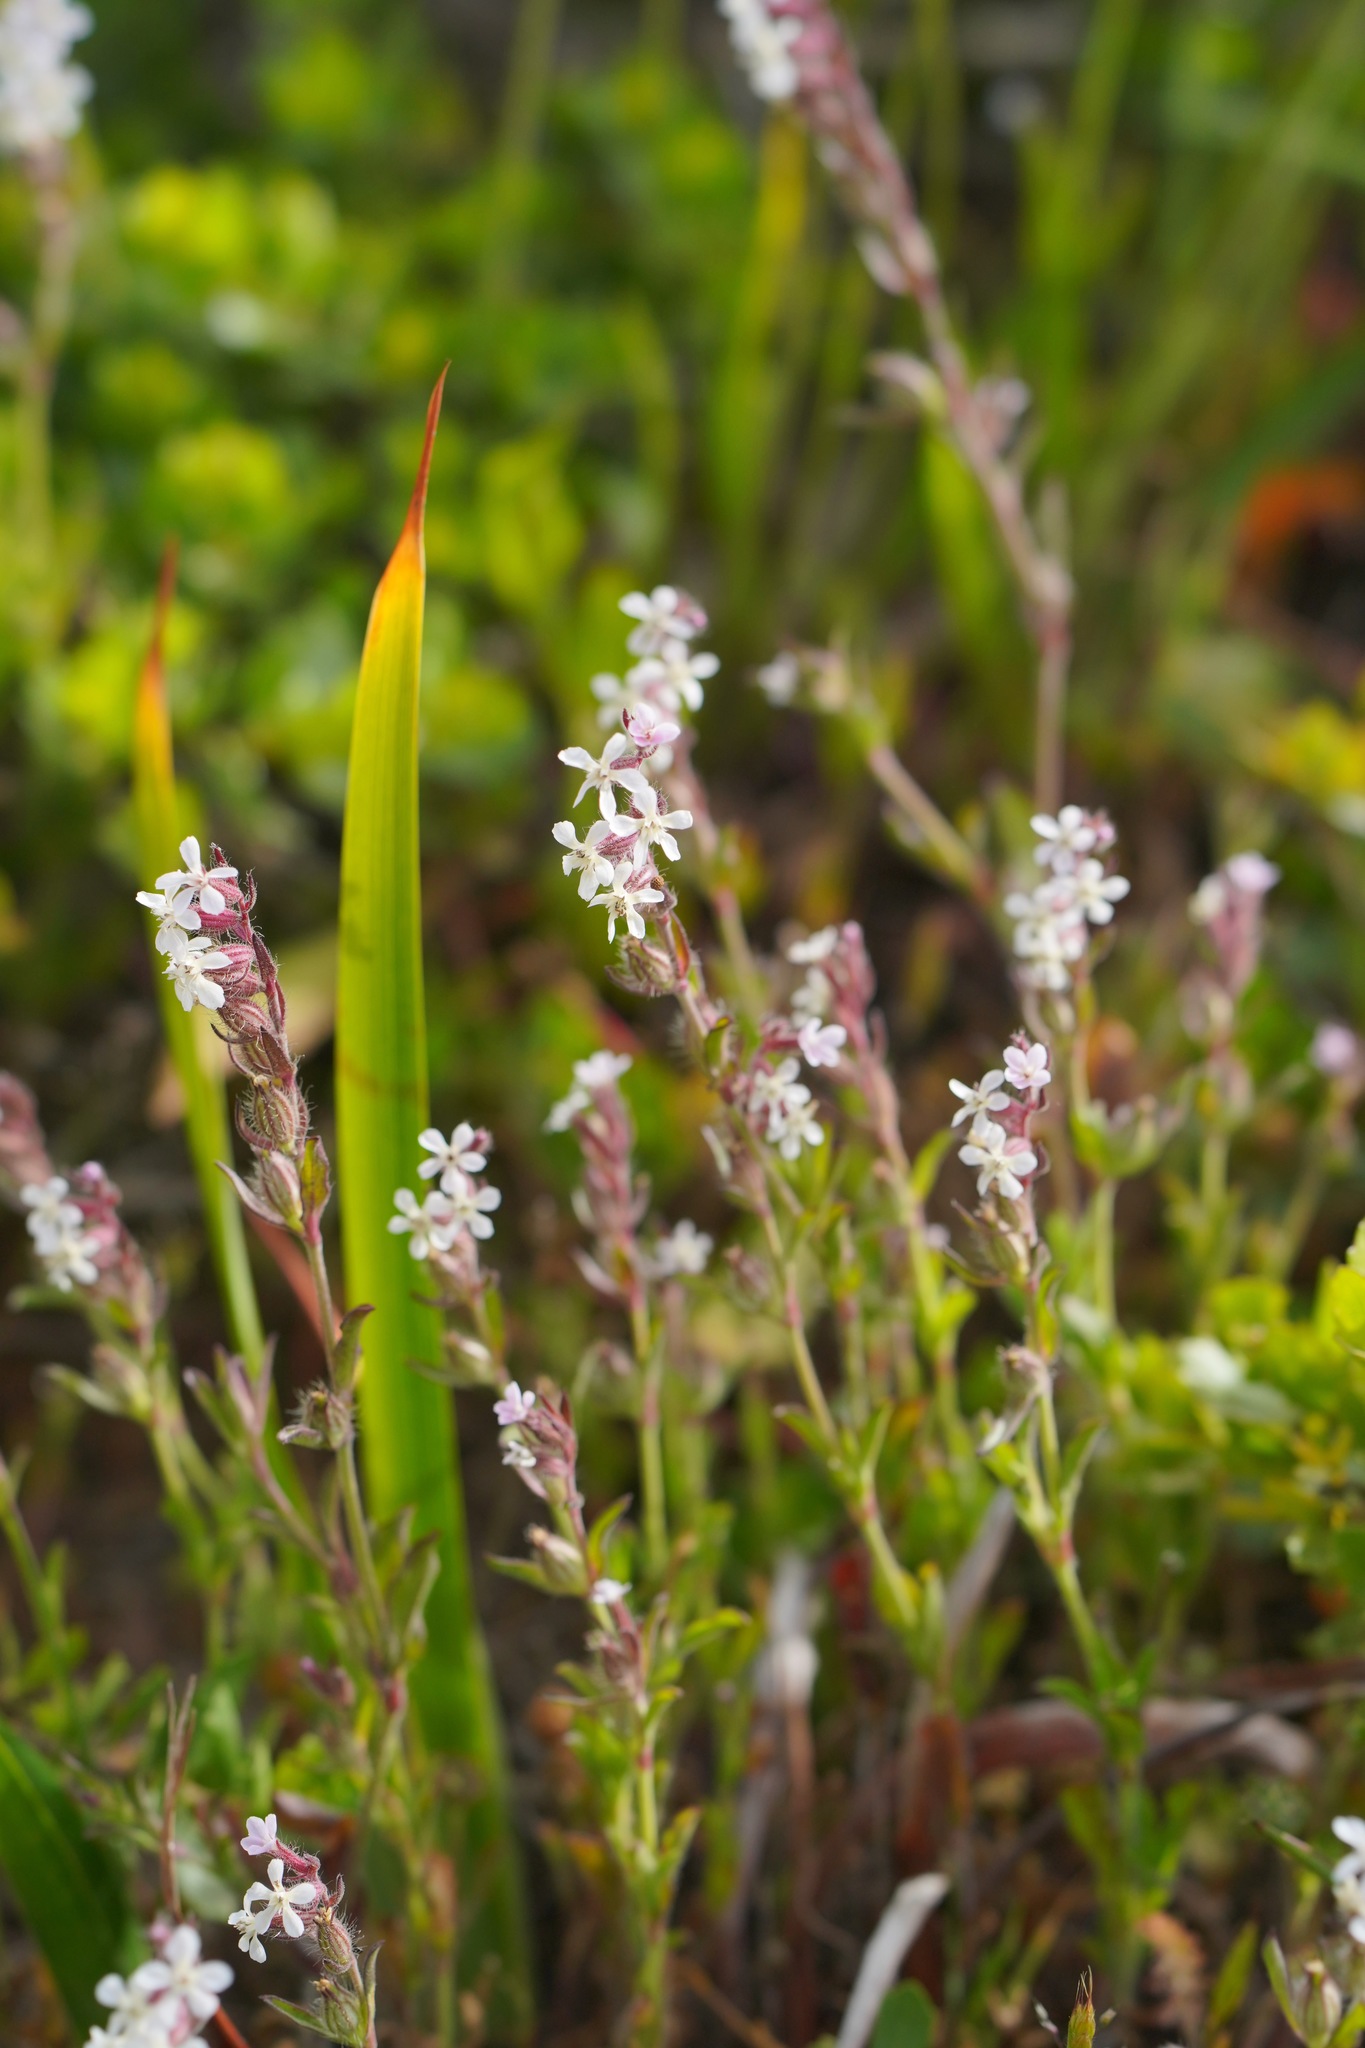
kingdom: Plantae
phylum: Tracheophyta
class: Magnoliopsida
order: Caryophyllales
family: Caryophyllaceae
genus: Silene
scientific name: Silene gallica
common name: Small-flowered catchfly
